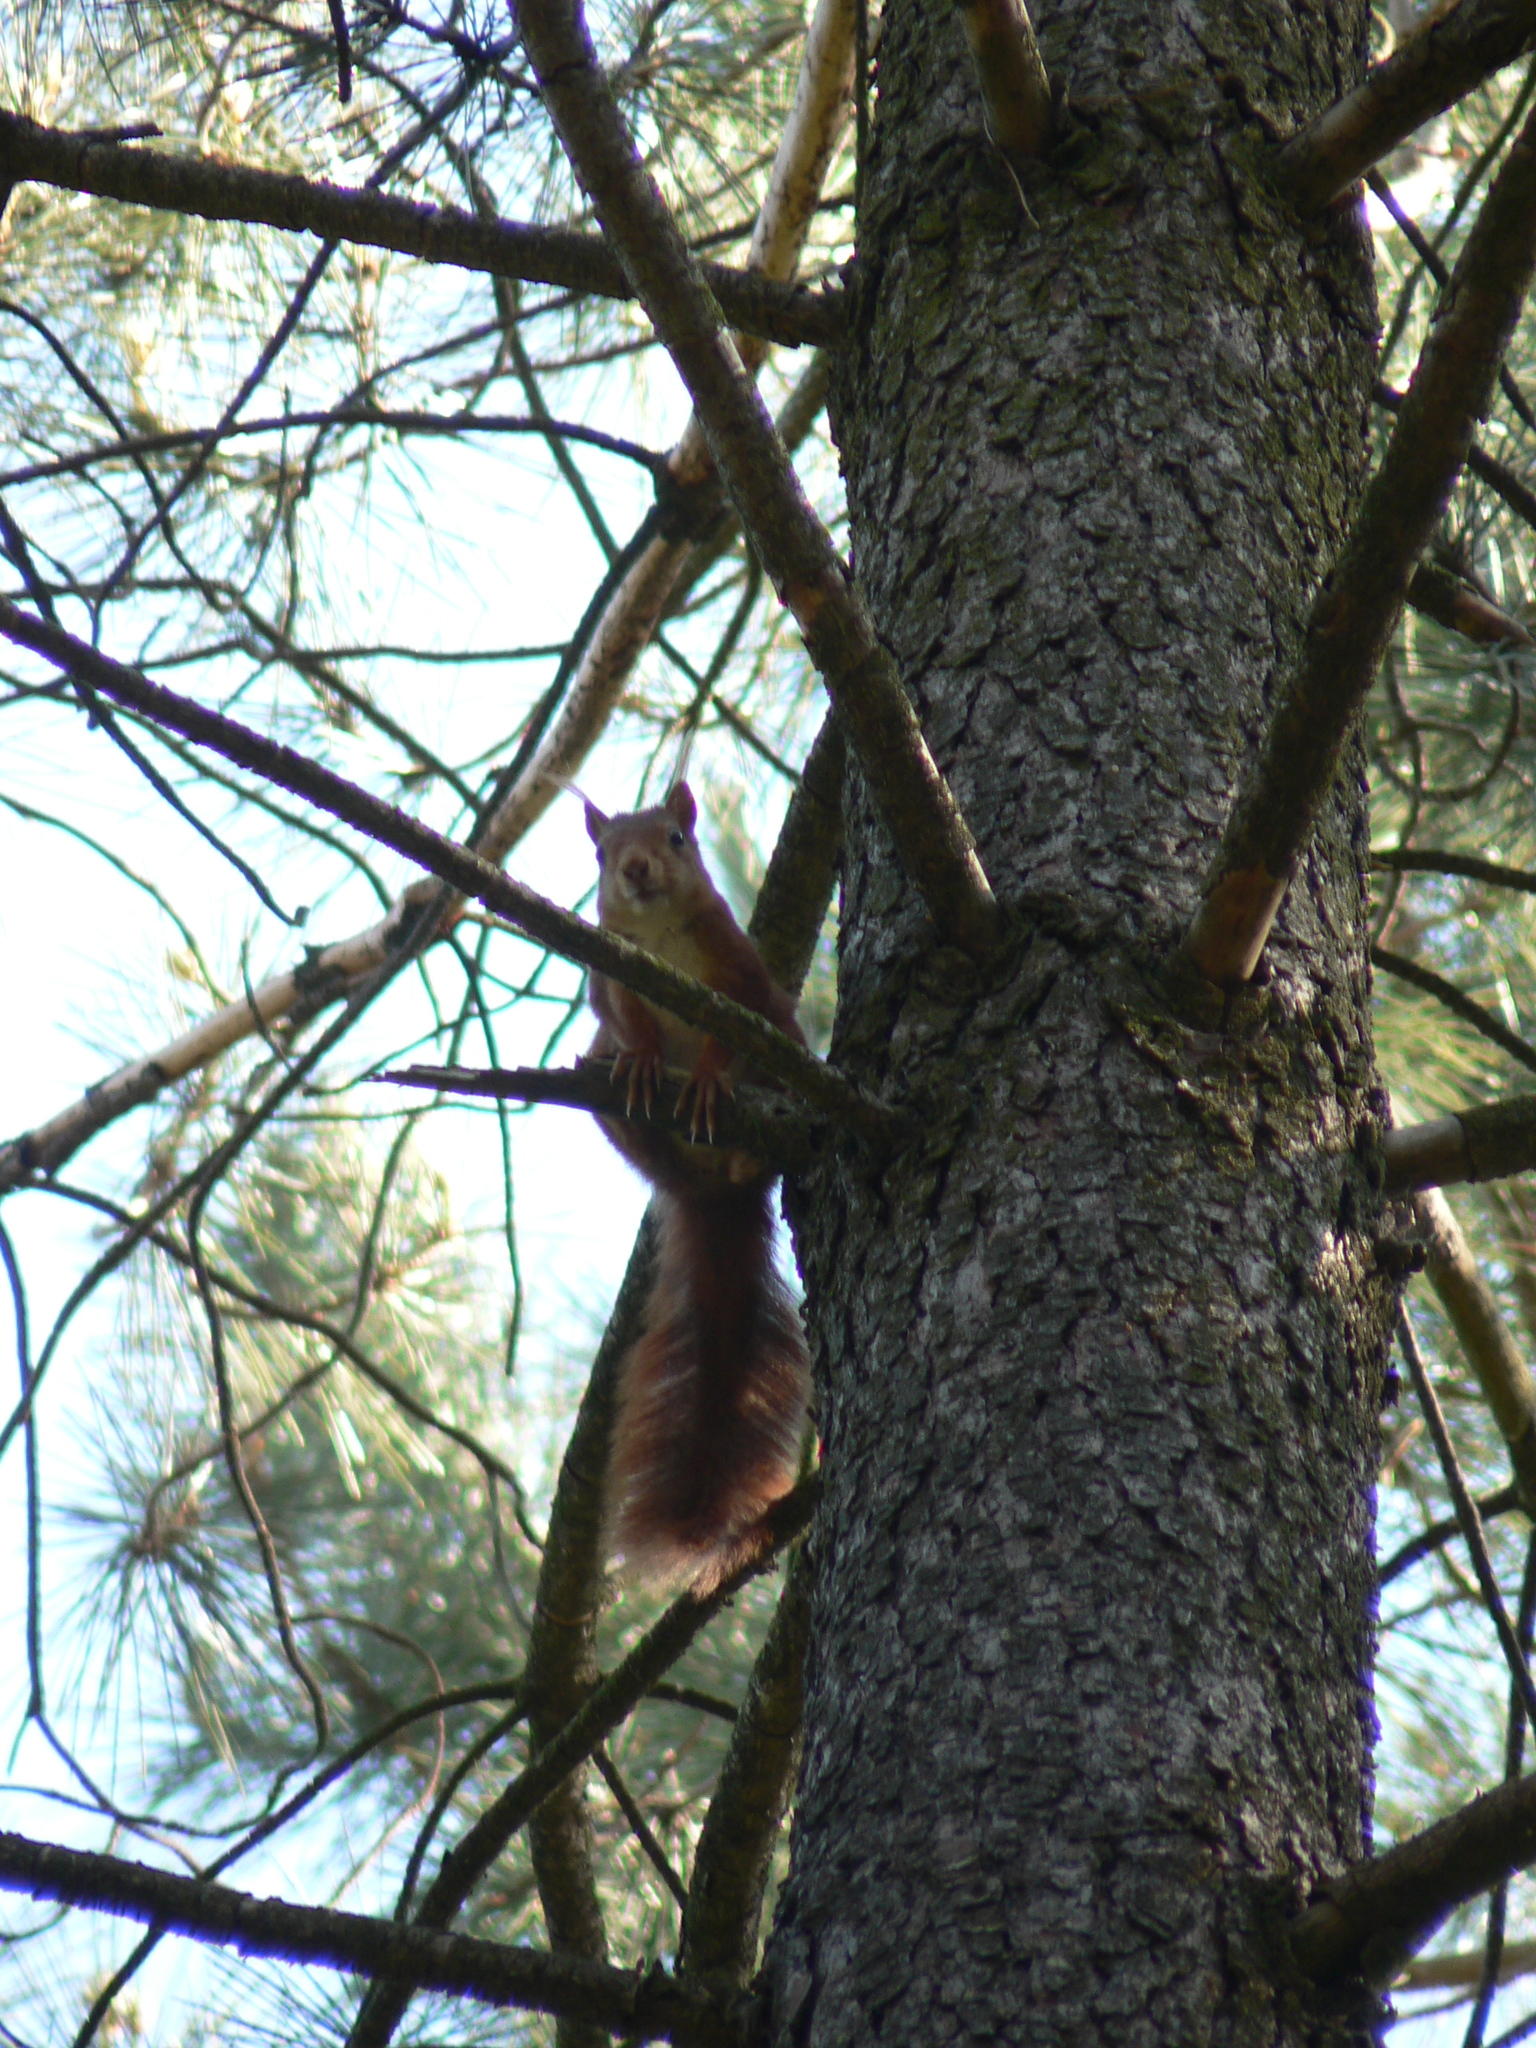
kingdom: Animalia
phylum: Chordata
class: Mammalia
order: Rodentia
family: Sciuridae
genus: Sciurus
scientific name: Sciurus vulgaris
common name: Eurasian red squirrel
